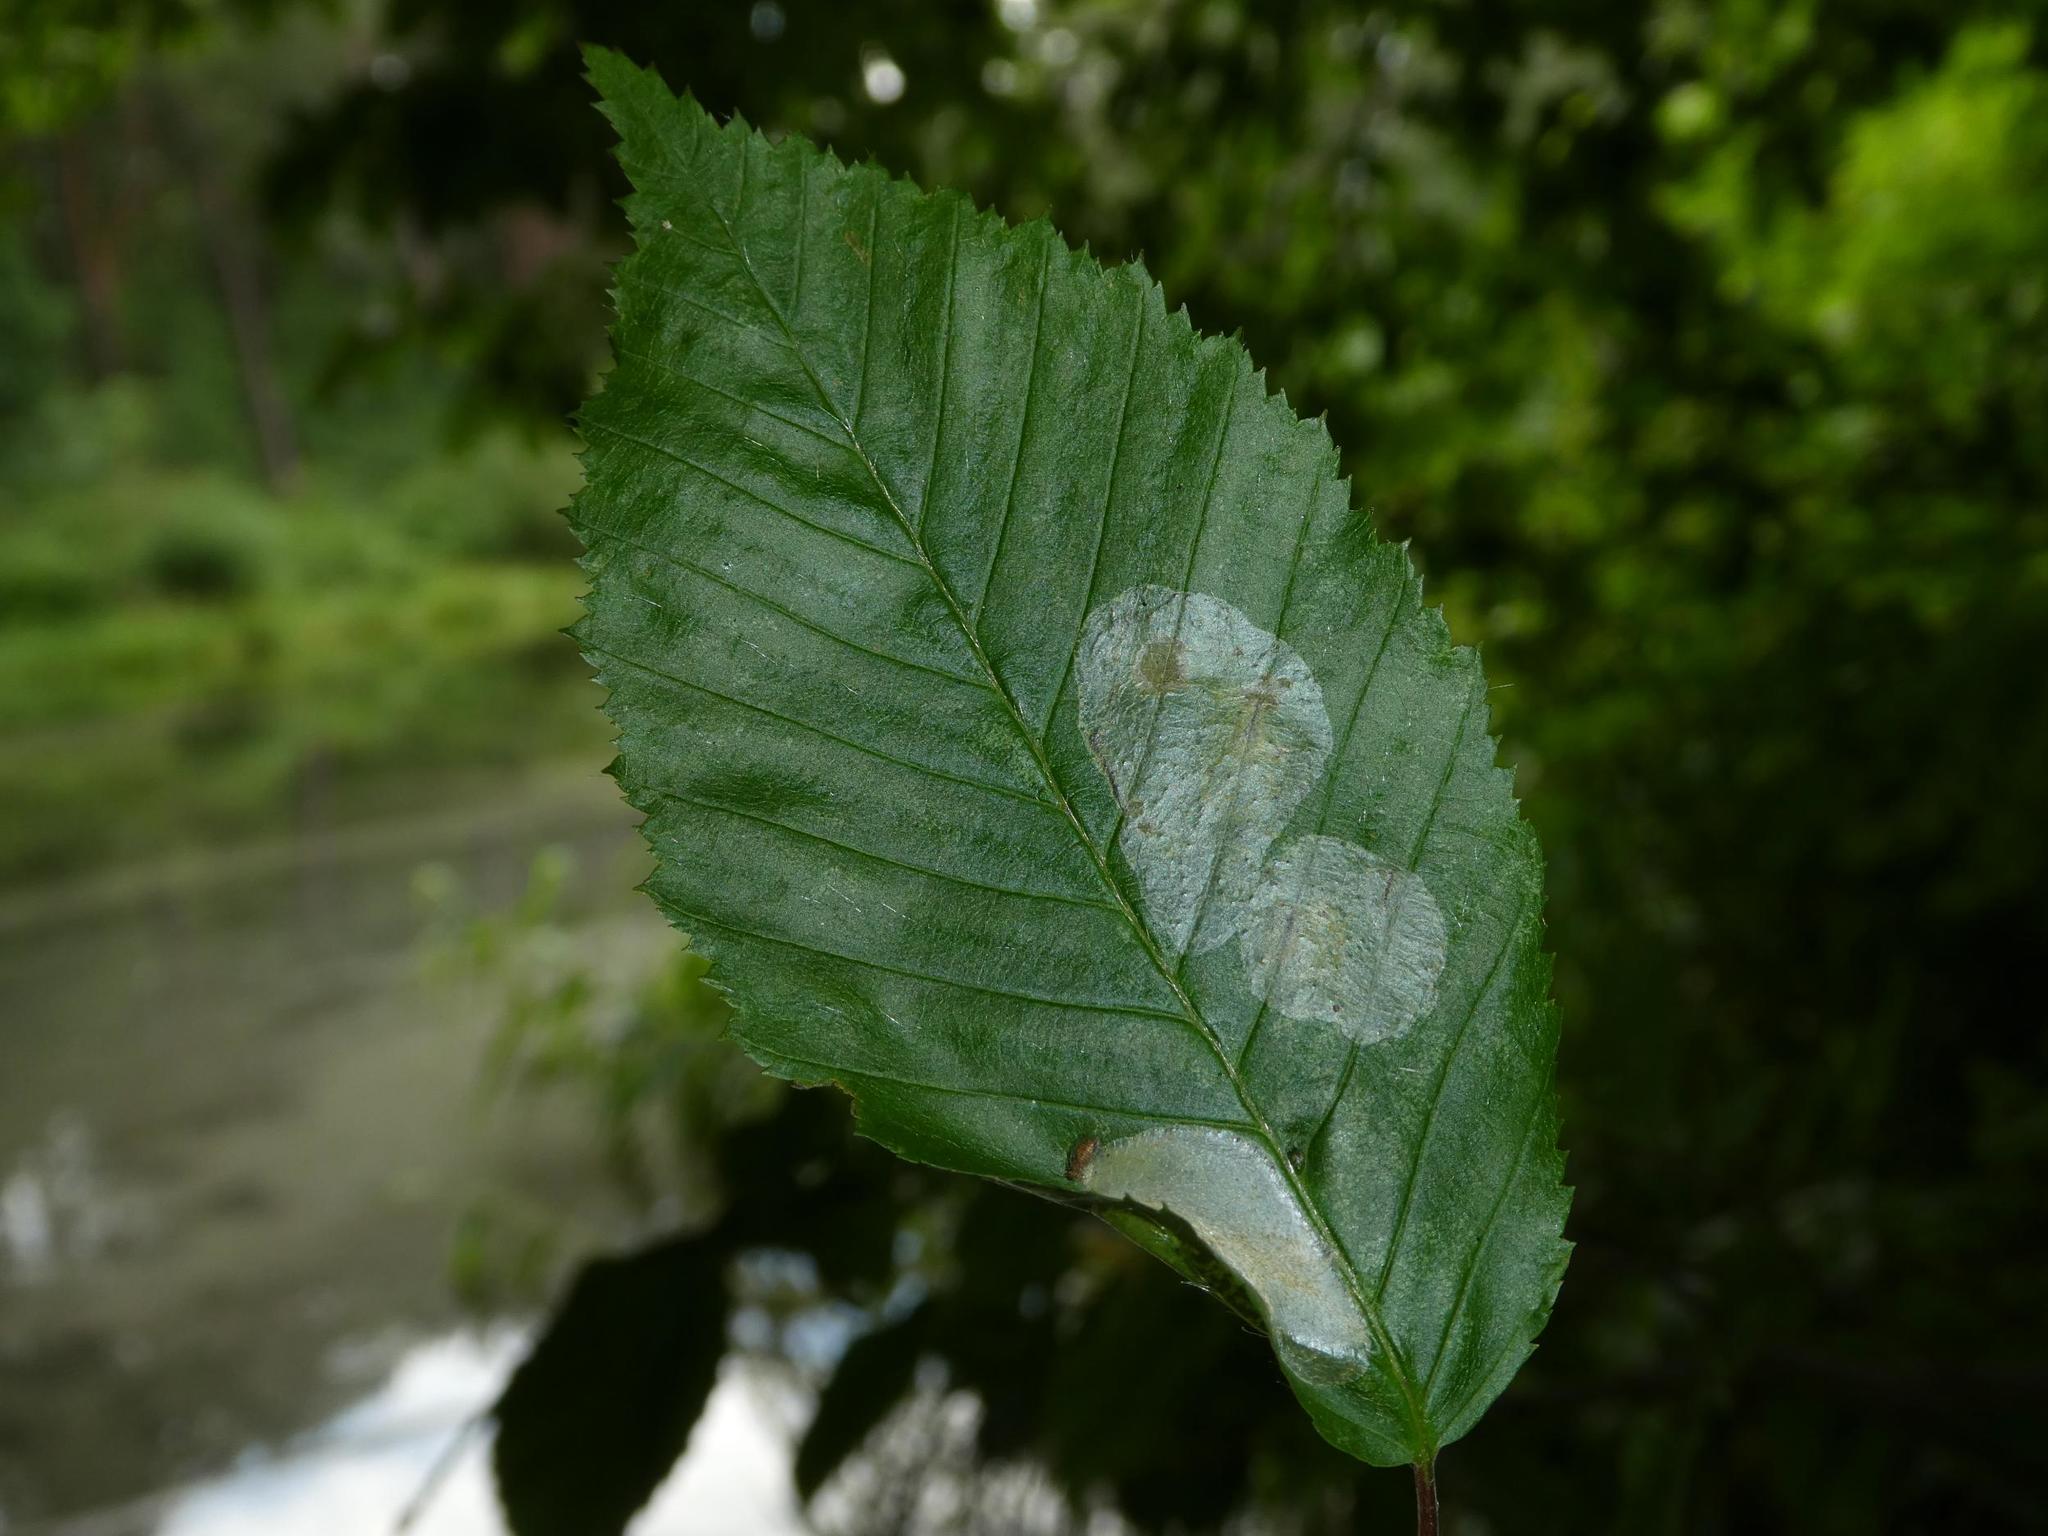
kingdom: Plantae
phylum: Tracheophyta
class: Magnoliopsida
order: Fagales
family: Betulaceae
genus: Carpinus
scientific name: Carpinus betulus
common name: Hornbeam
